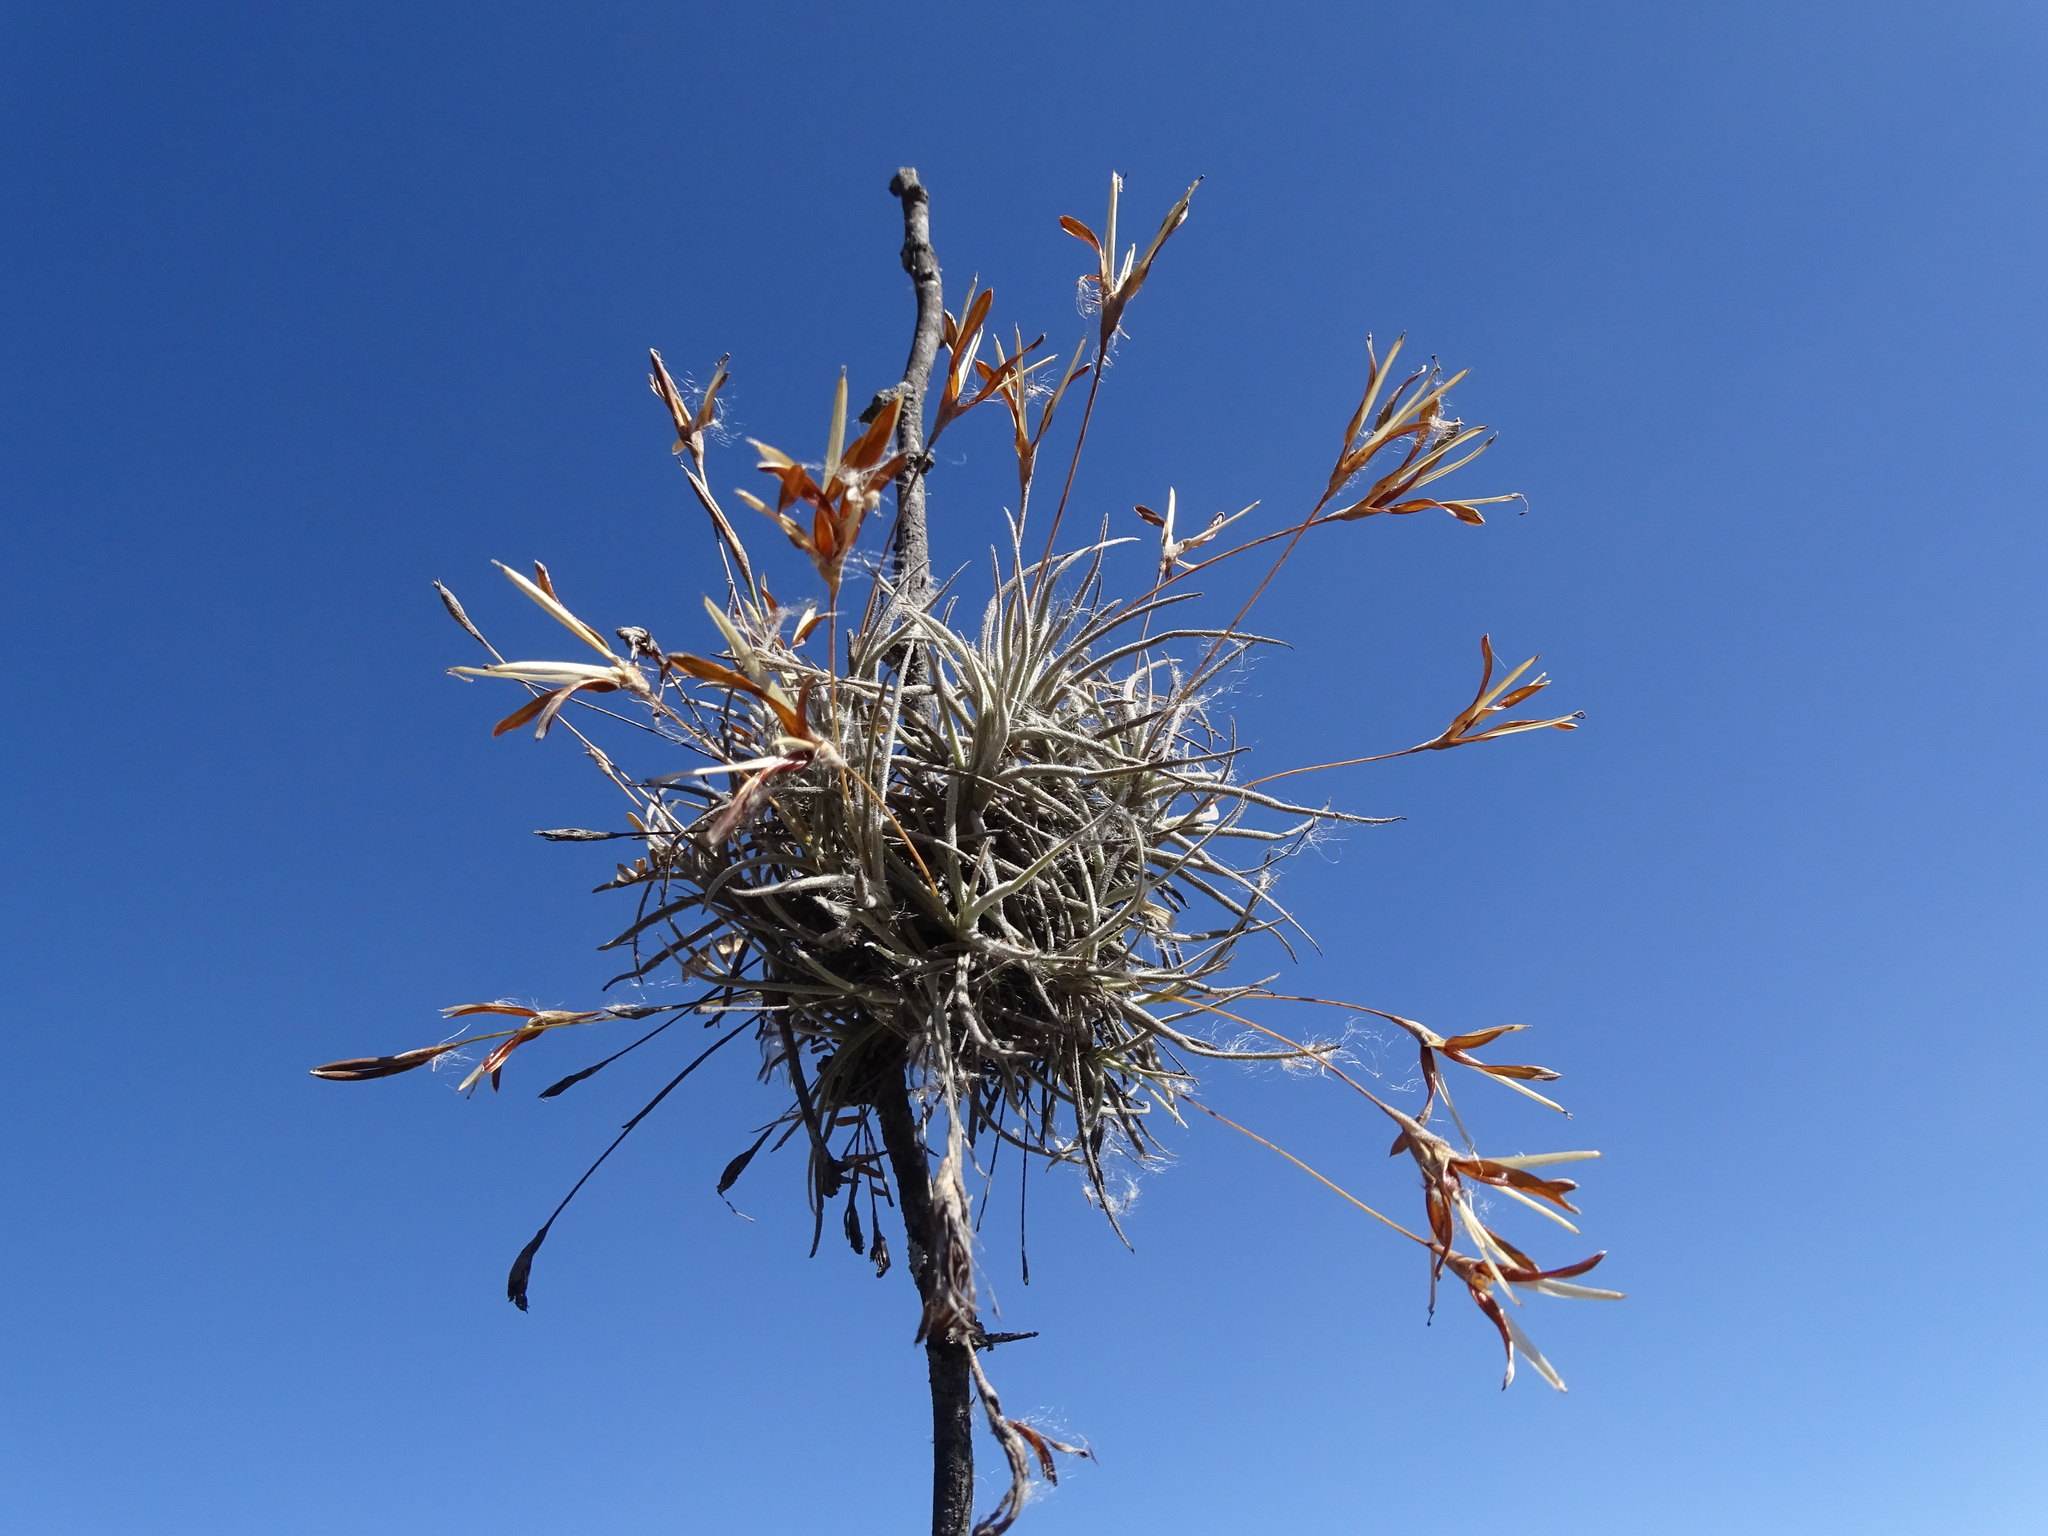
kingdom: Plantae
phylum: Tracheophyta
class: Liliopsida
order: Poales
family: Bromeliaceae
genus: Tillandsia
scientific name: Tillandsia recurvata
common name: Small ballmoss
